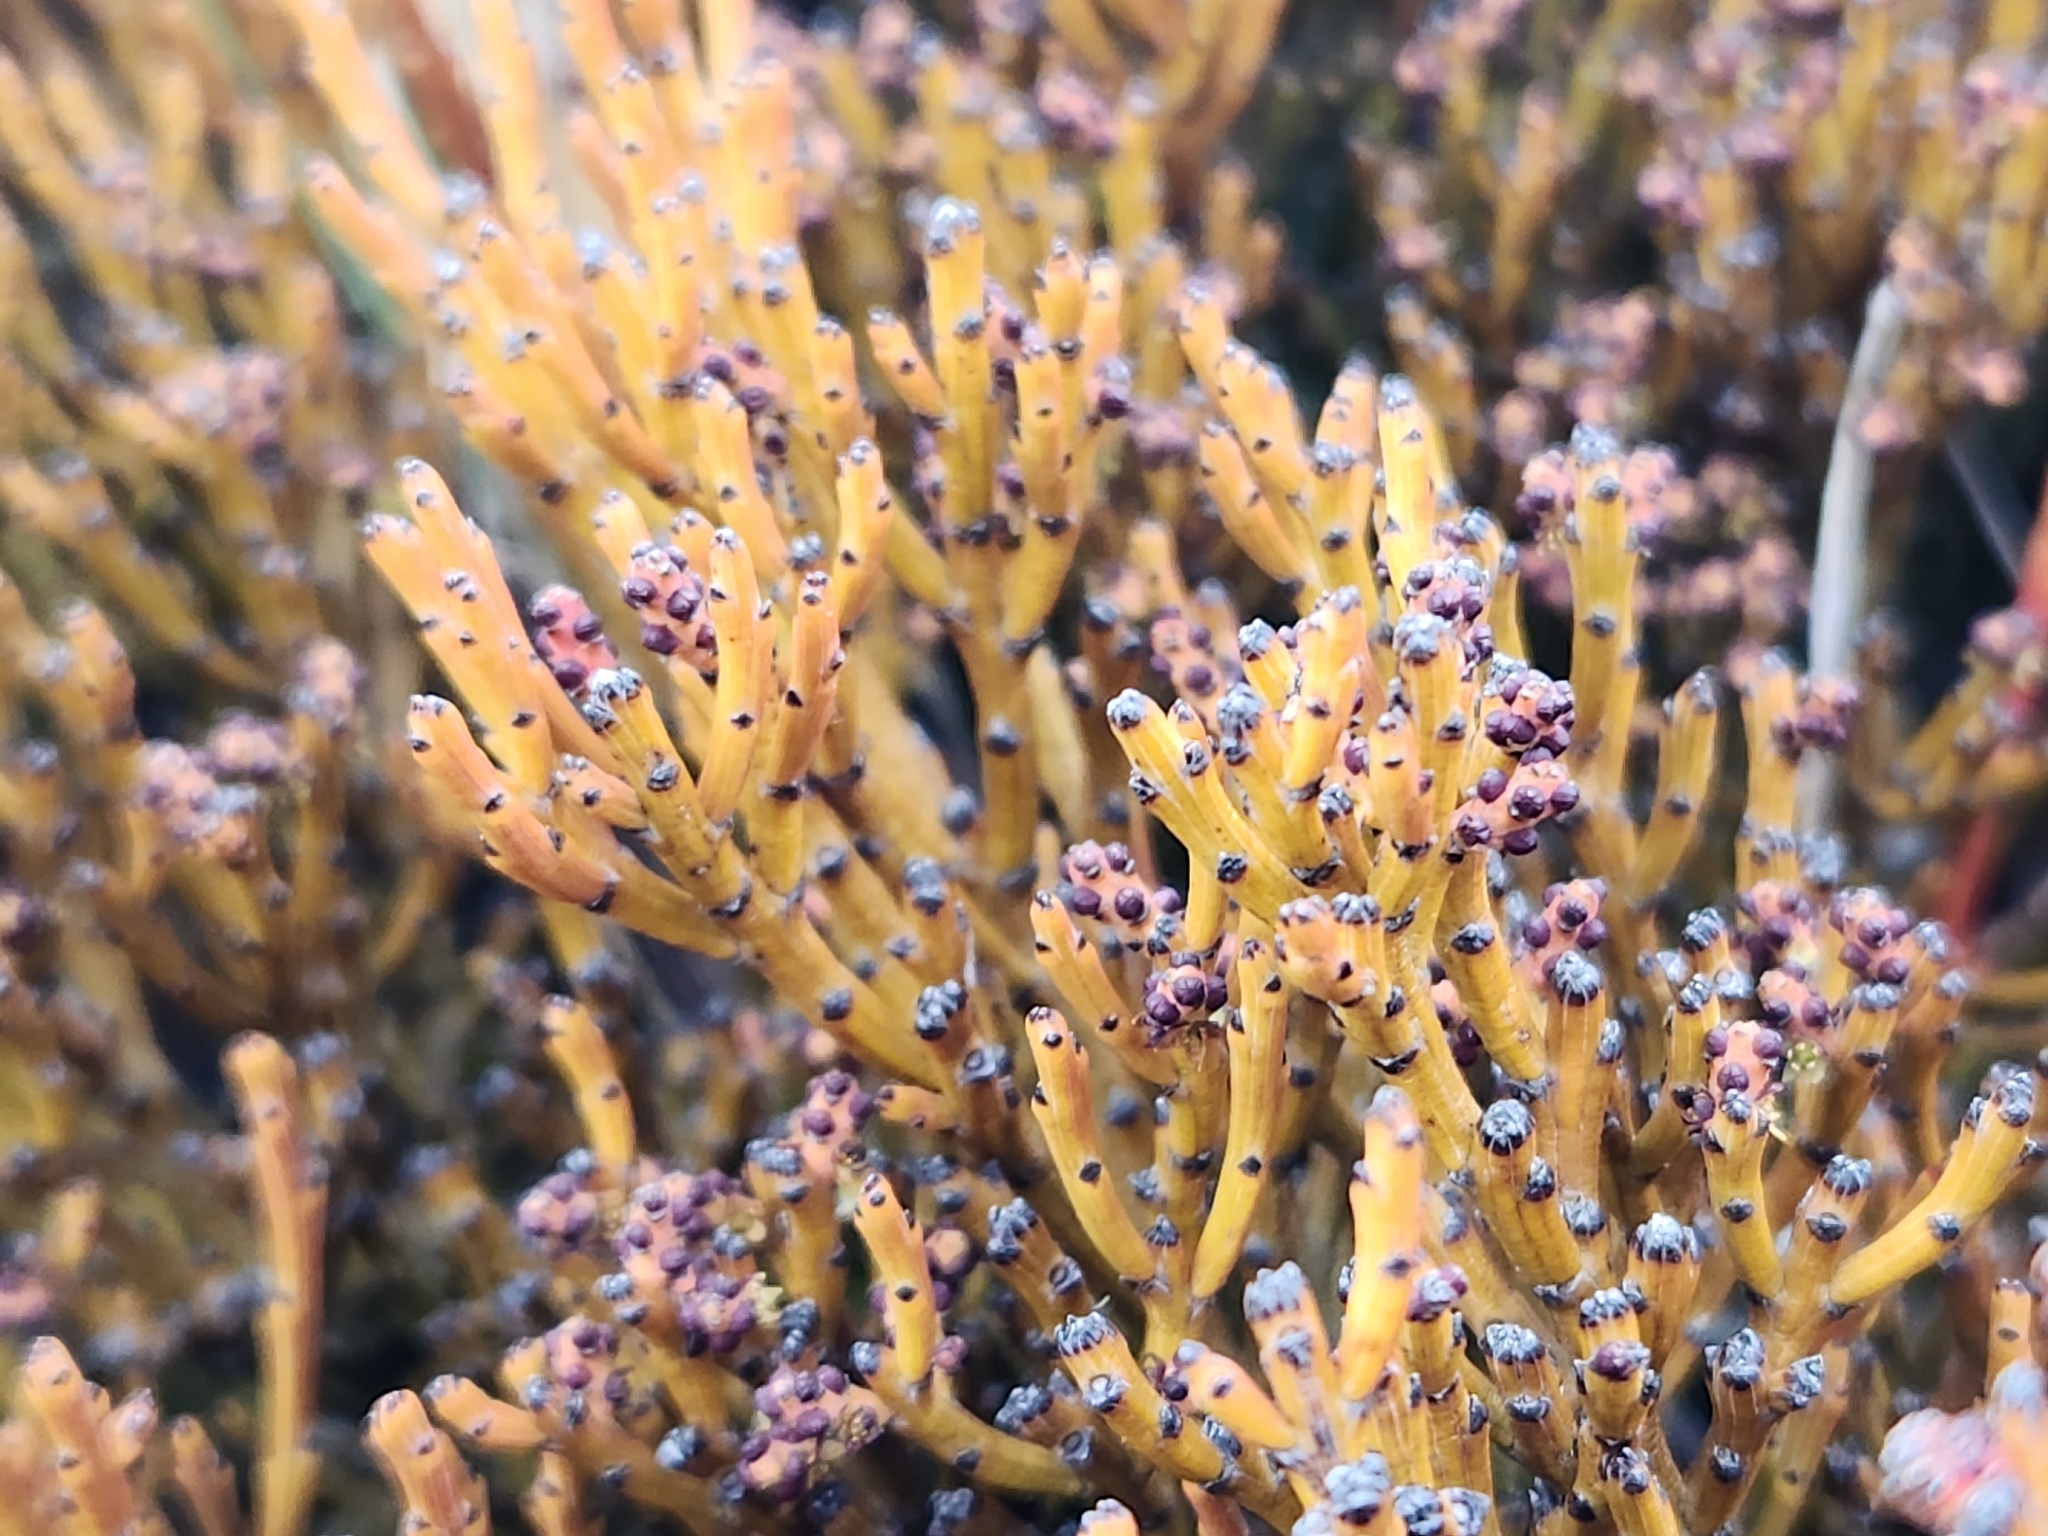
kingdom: Plantae
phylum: Tracheophyta
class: Magnoliopsida
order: Santalales
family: Santalaceae
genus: Exocarpos
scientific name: Exocarpos bidwillii
